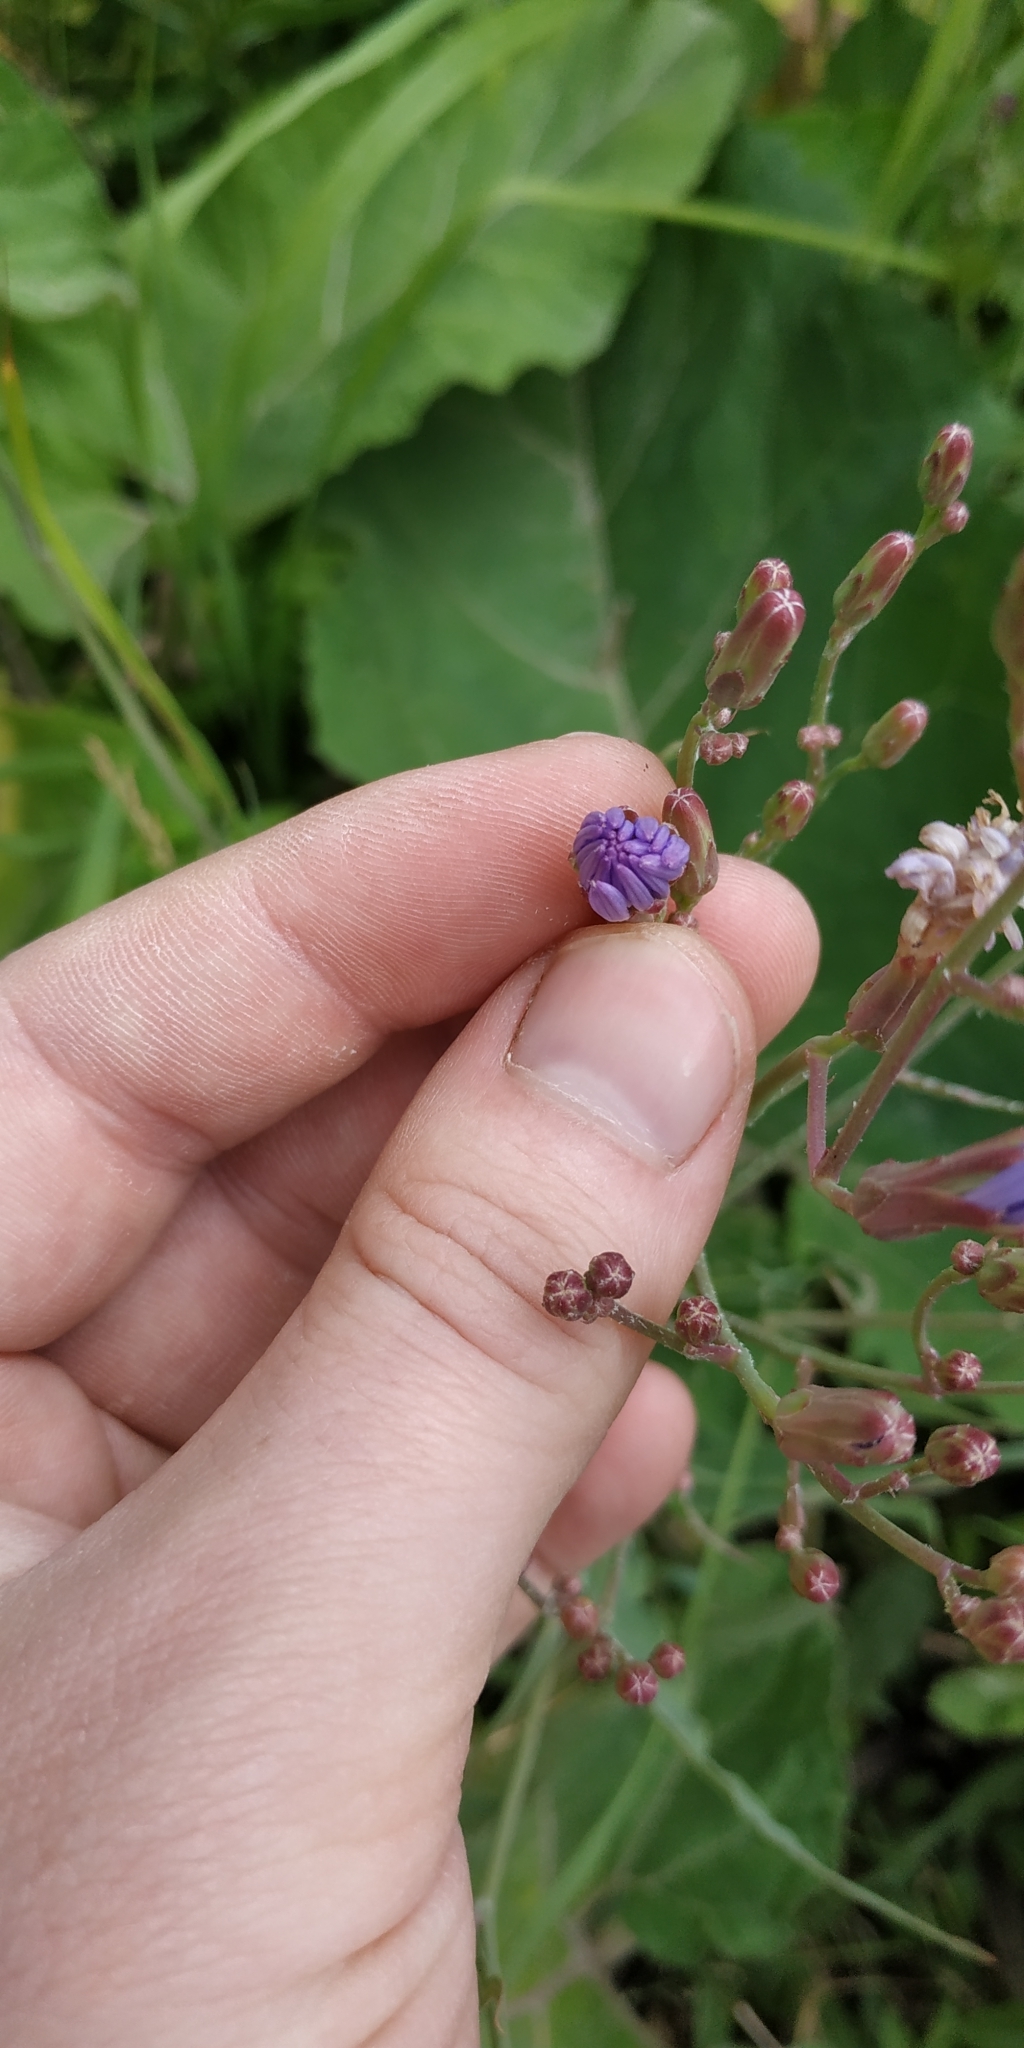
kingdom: Plantae
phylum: Tracheophyta
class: Magnoliopsida
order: Asterales
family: Asteraceae
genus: Lactuca
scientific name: Lactuca tatarica
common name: Blue lettuce
